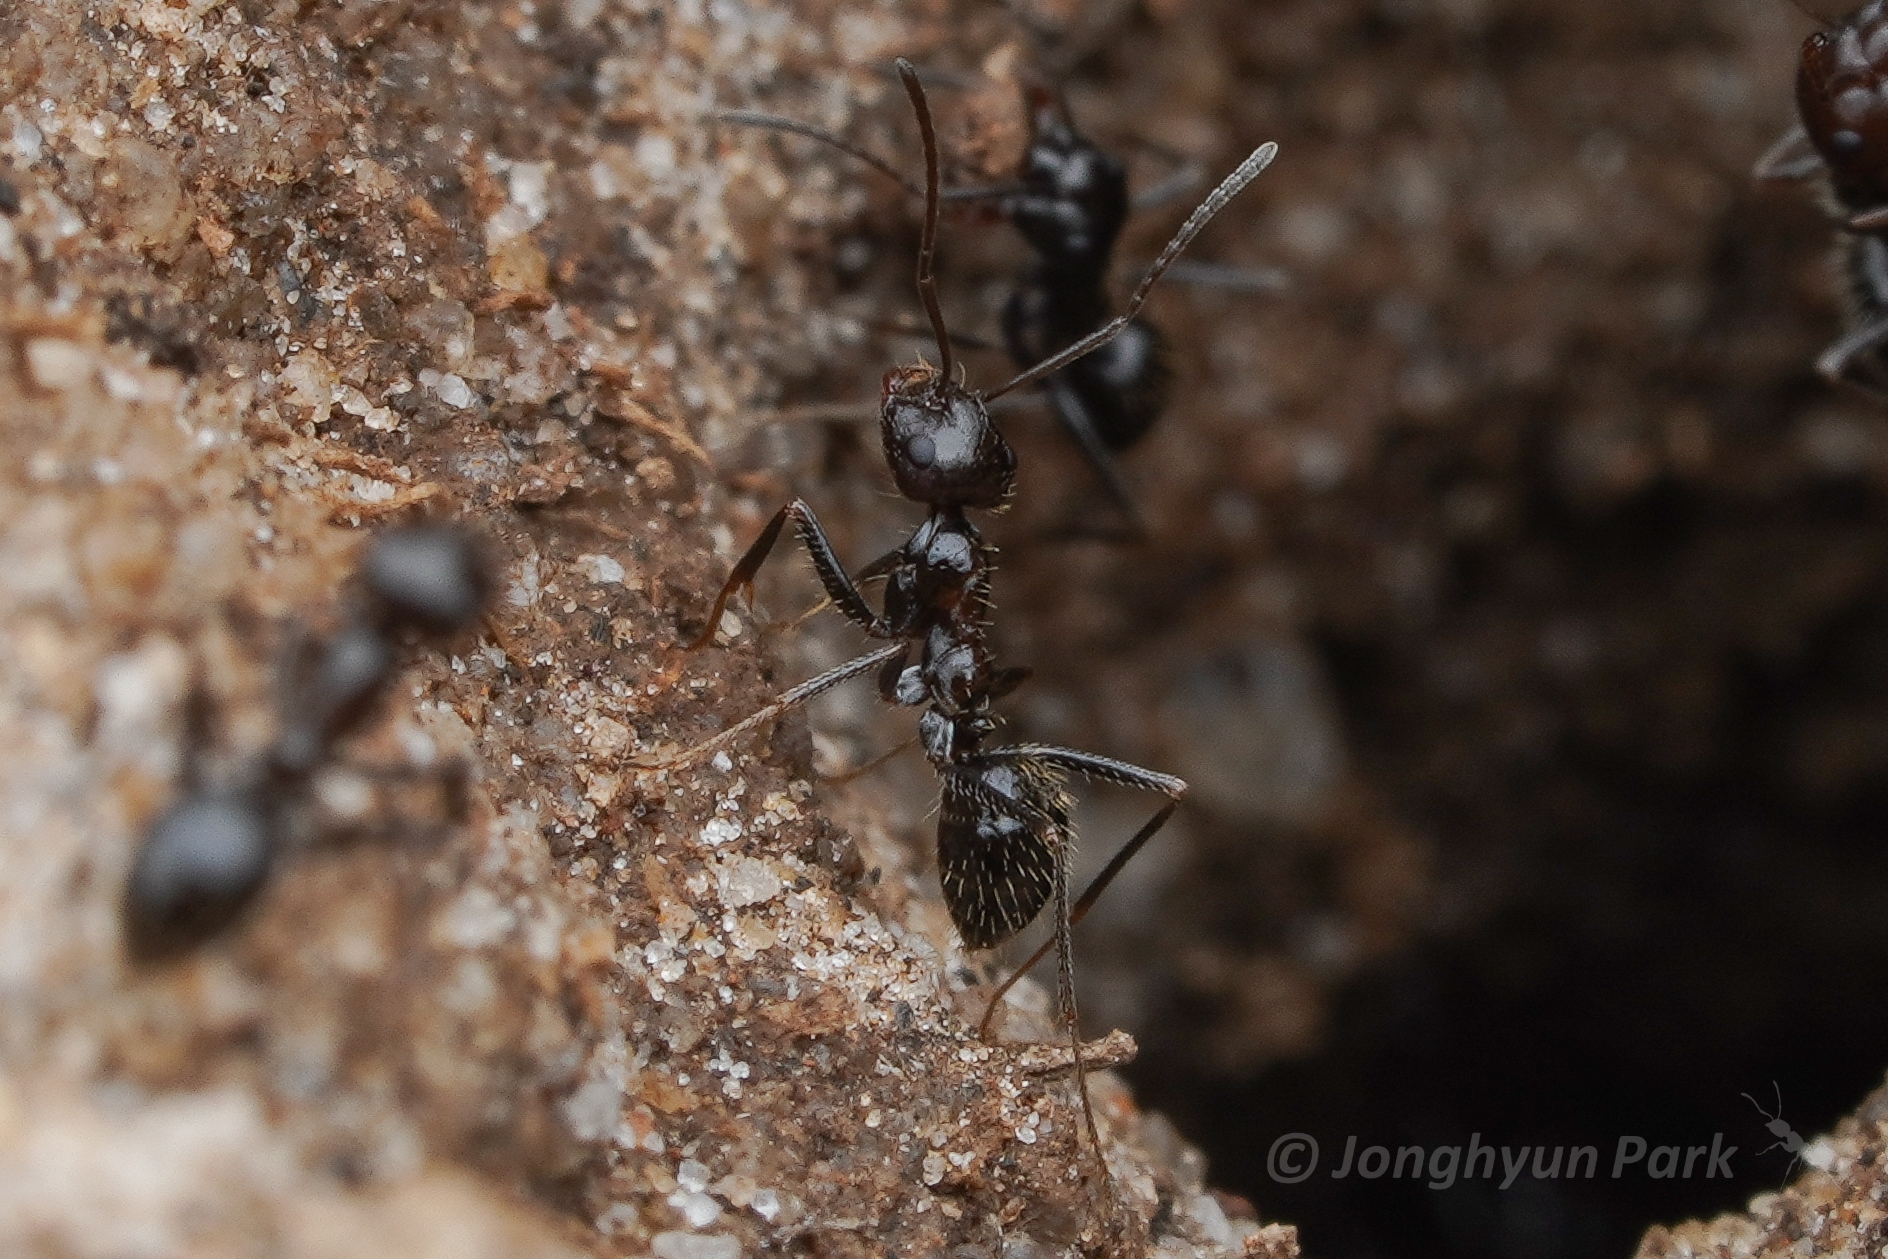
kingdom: Animalia
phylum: Arthropoda
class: Insecta
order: Hymenoptera
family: Formicidae
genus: Anoplolepis
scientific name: Anoplolepis steingroeveri
